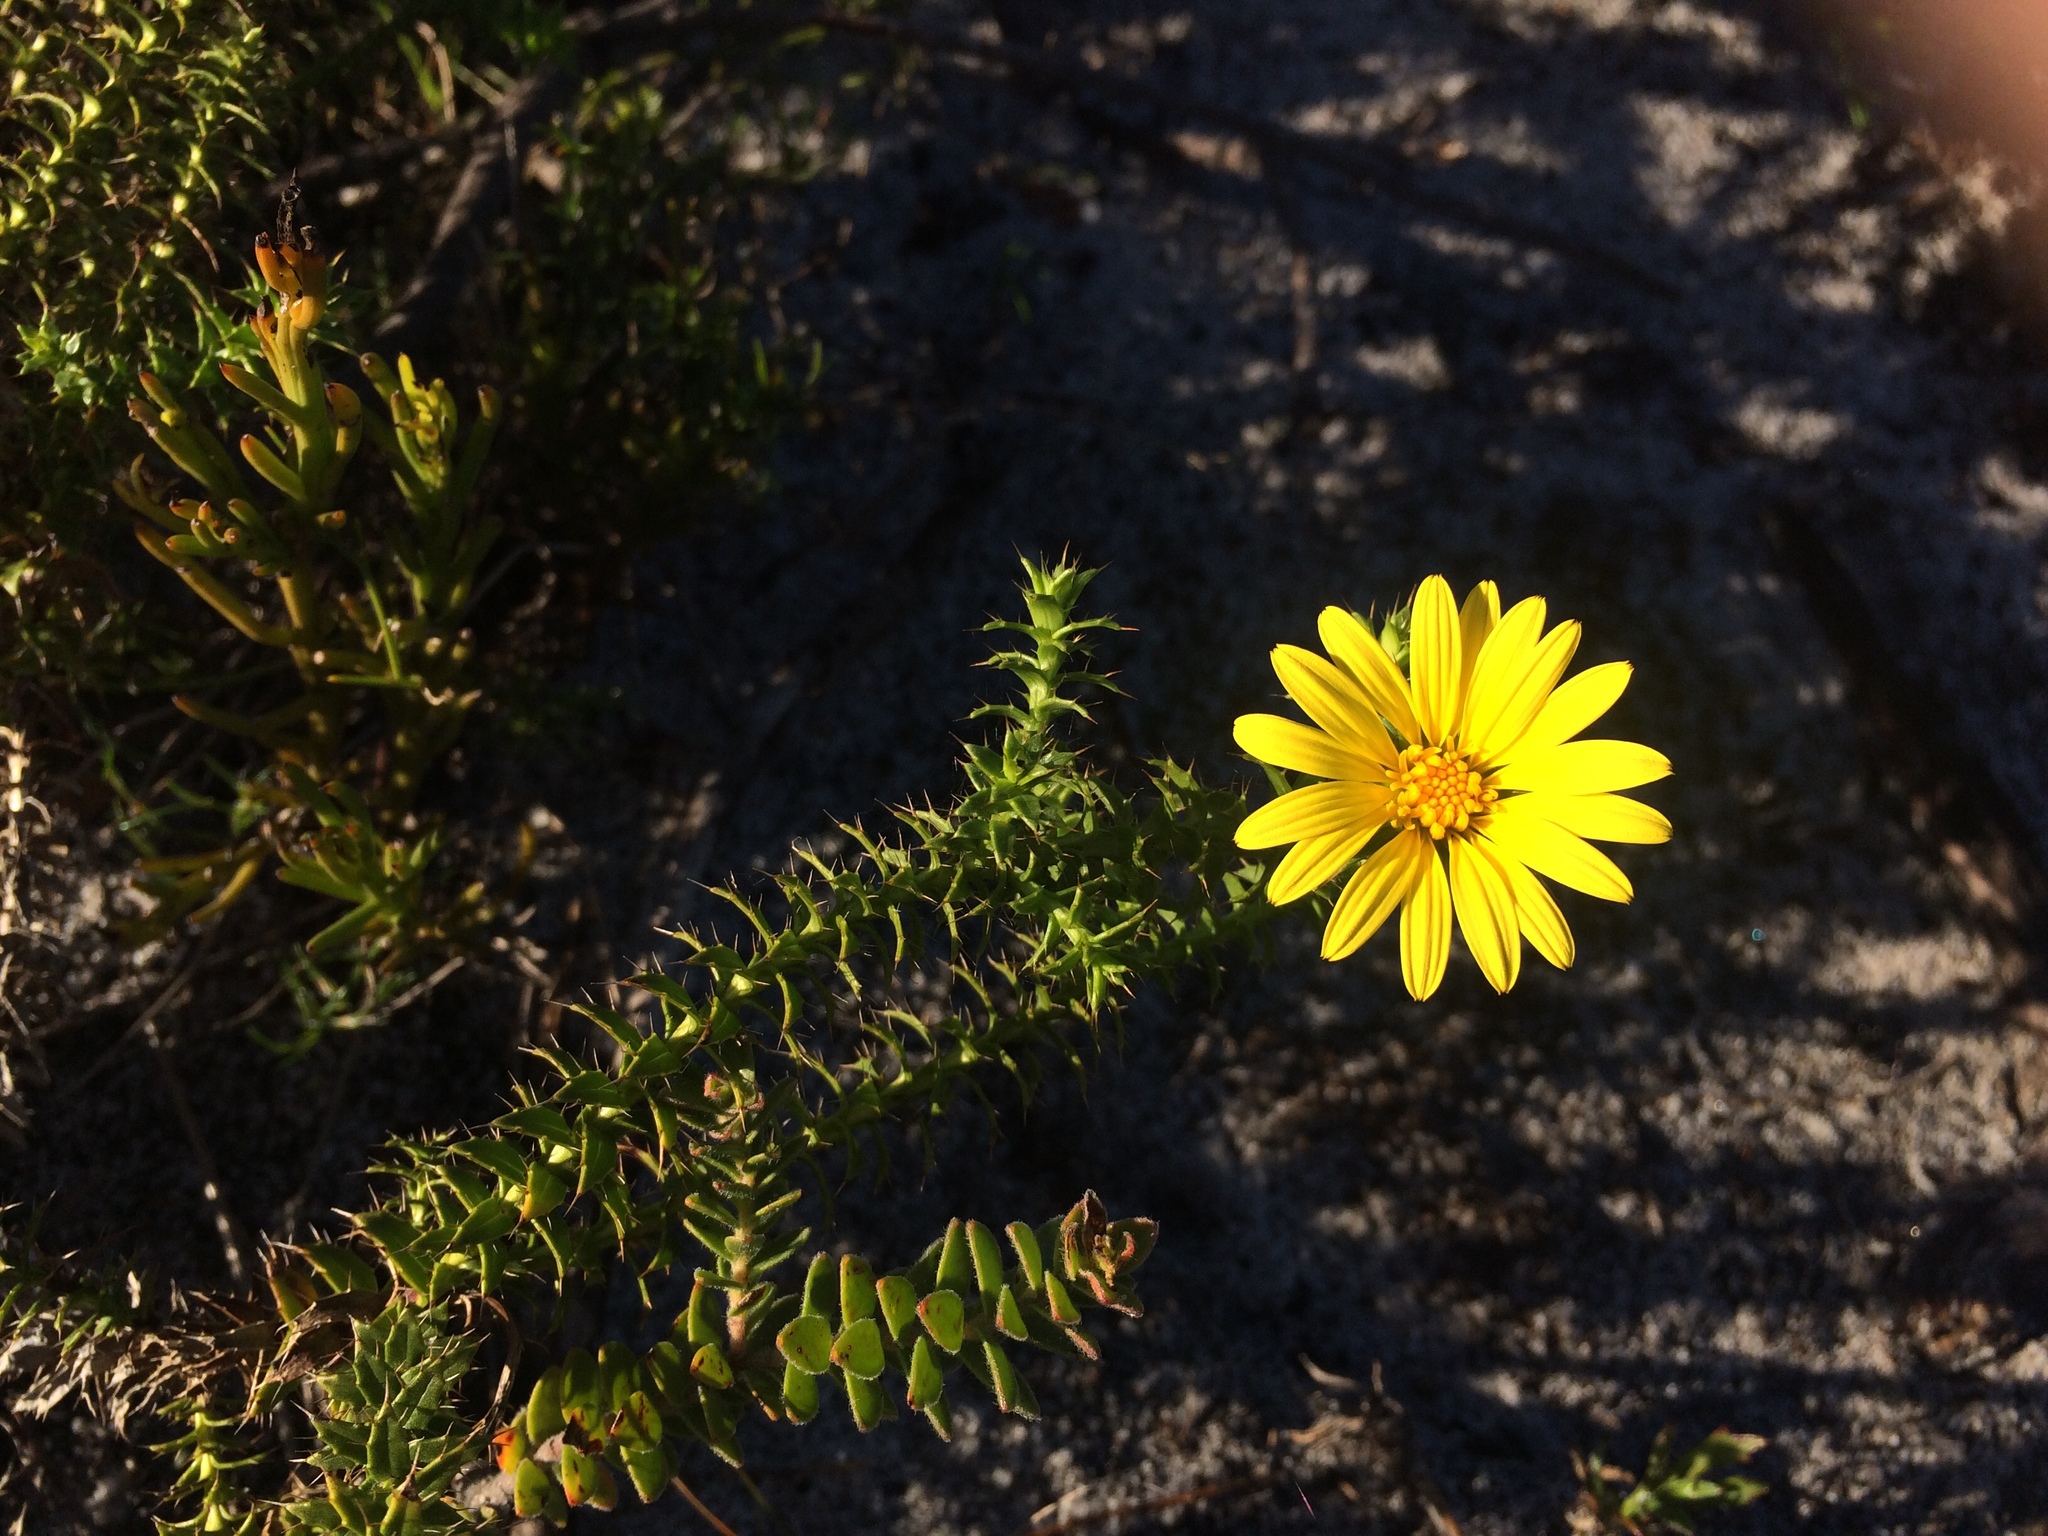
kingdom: Plantae
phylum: Tracheophyta
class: Magnoliopsida
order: Asterales
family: Asteraceae
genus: Cullumia
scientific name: Cullumia setosa
